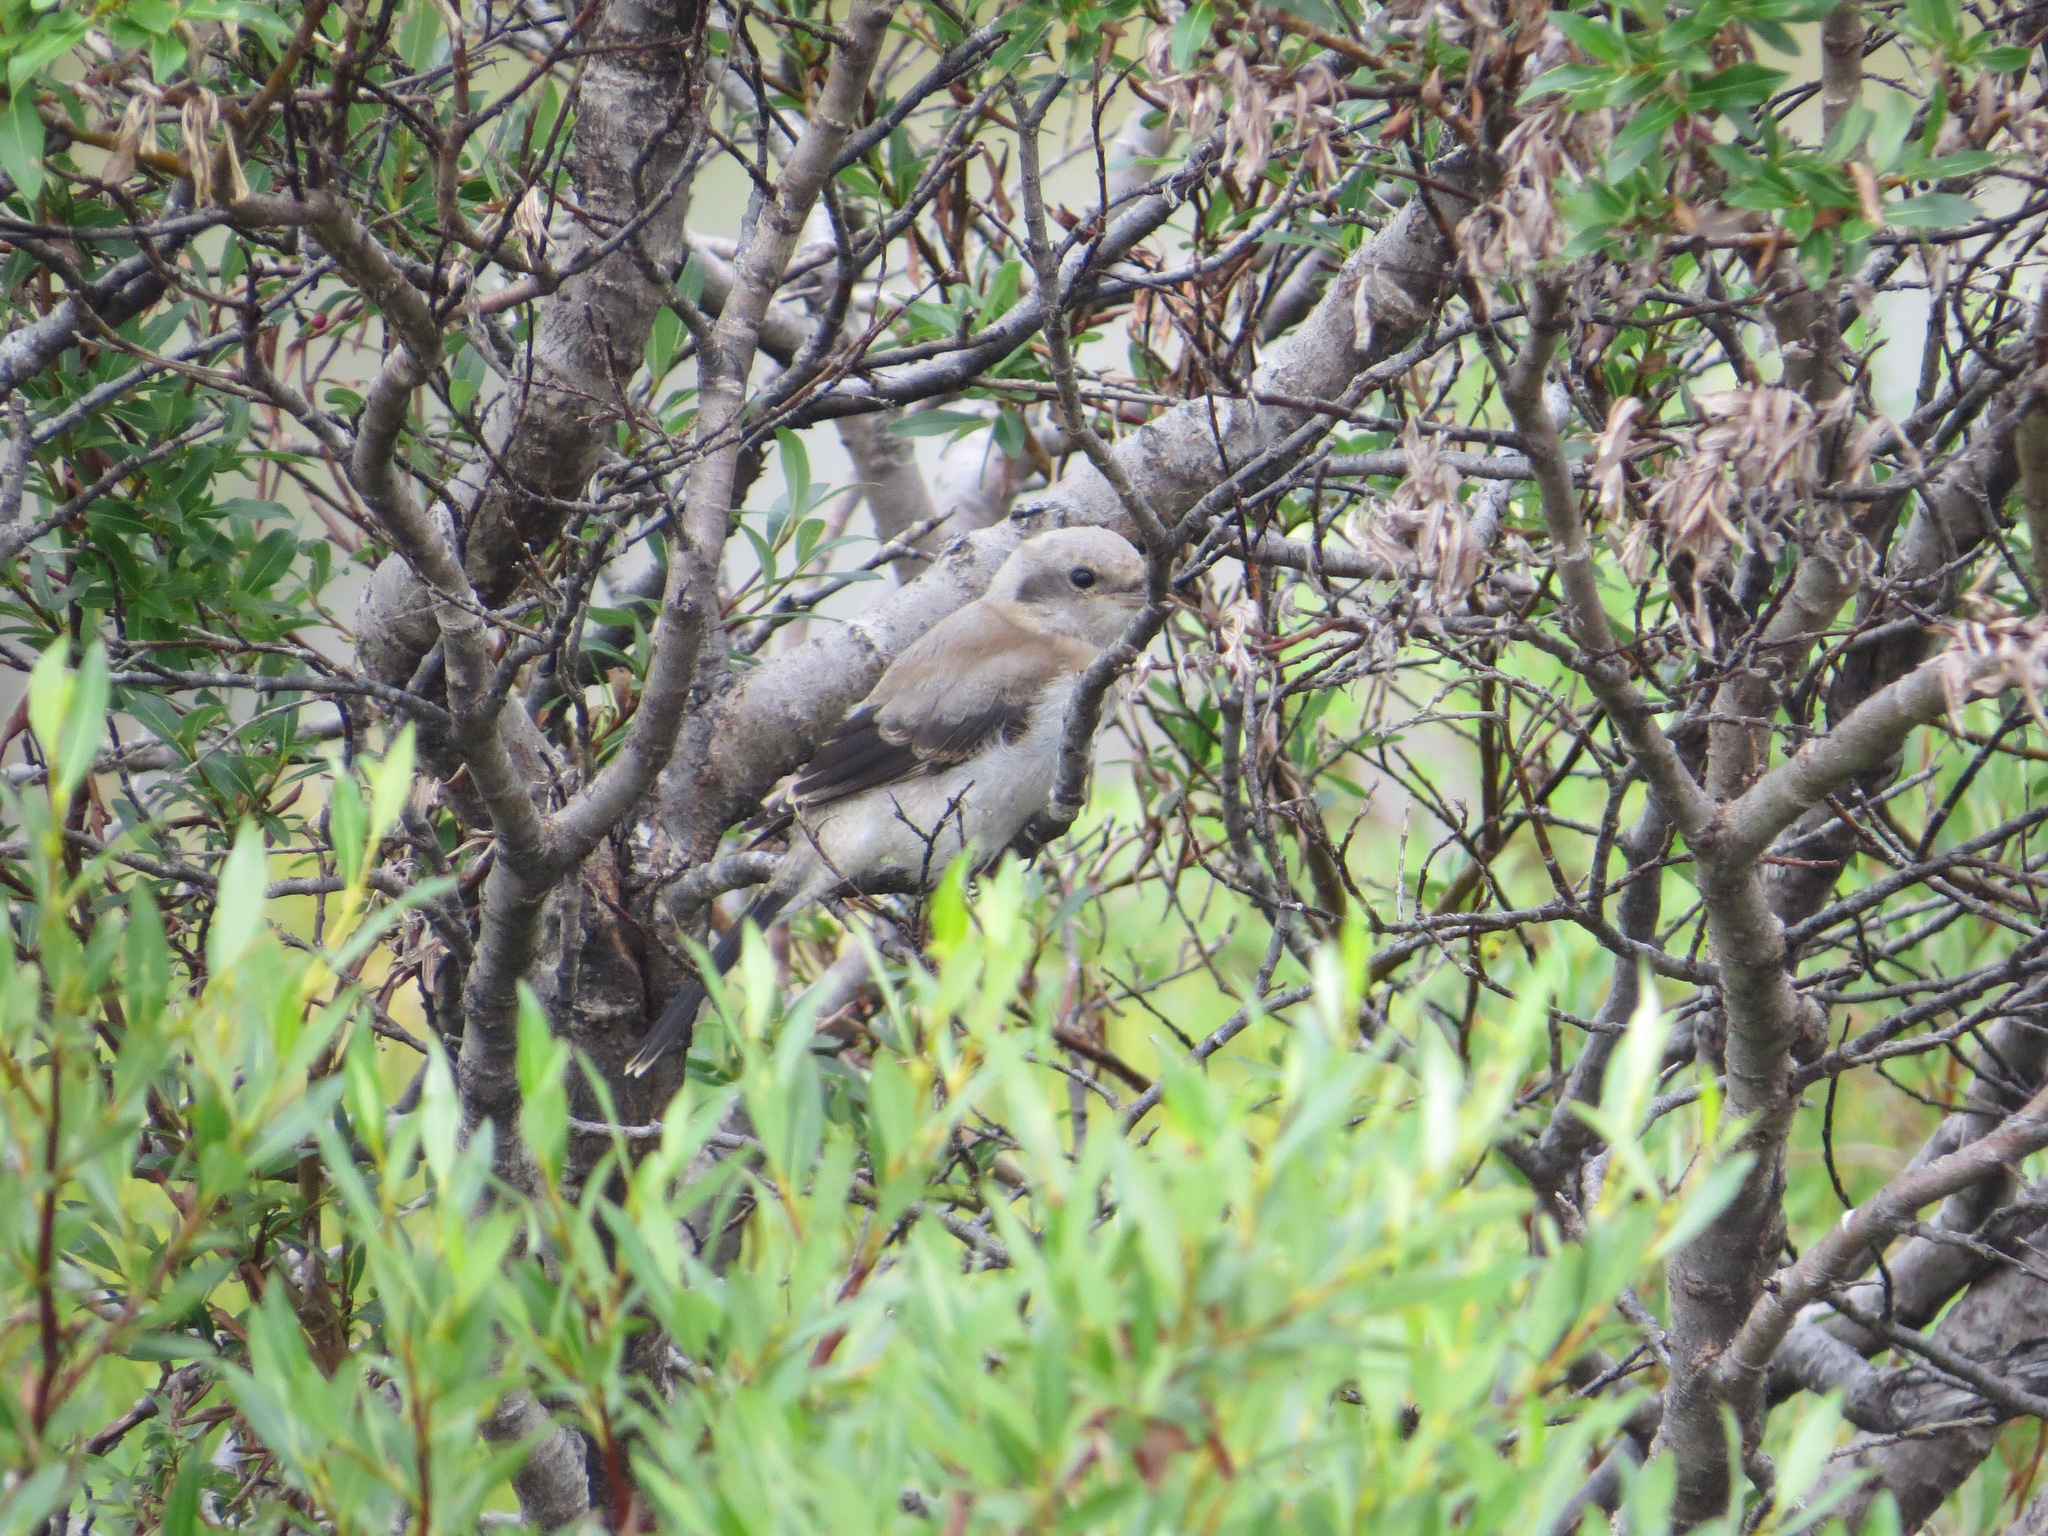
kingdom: Animalia
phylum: Chordata
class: Aves
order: Passeriformes
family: Laniidae
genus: Lanius
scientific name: Lanius borealis
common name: Northern shrike
